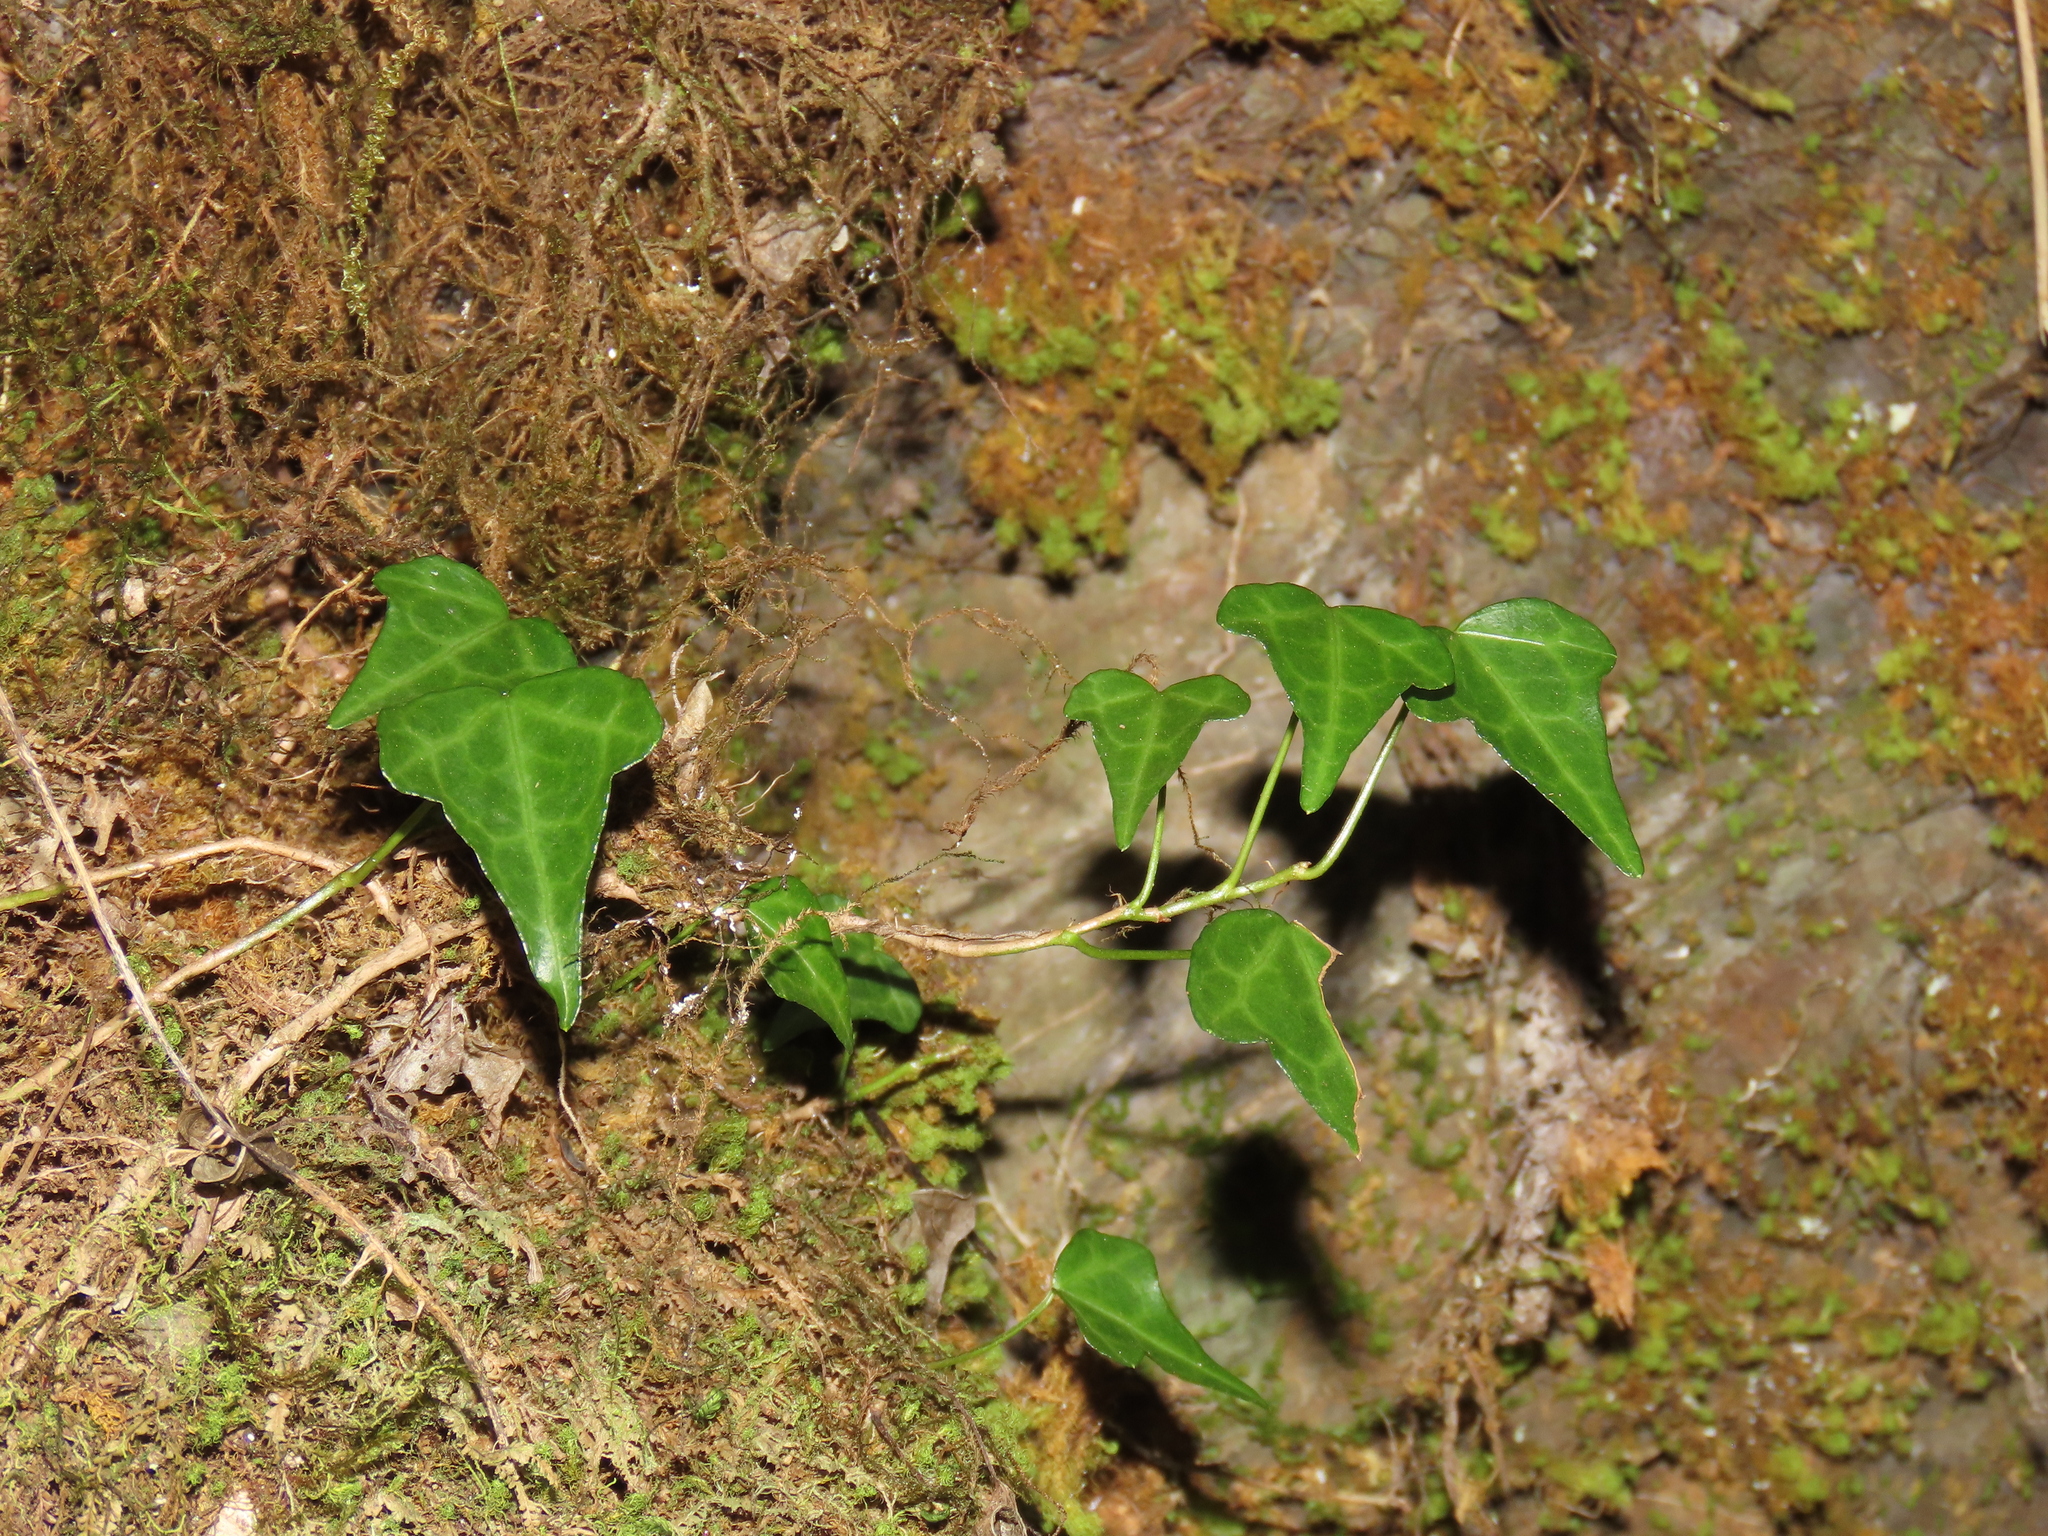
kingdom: Plantae
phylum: Tracheophyta
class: Magnoliopsida
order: Apiales
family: Araliaceae
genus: Hedera
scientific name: Hedera rhombea
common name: Japanese ivy
